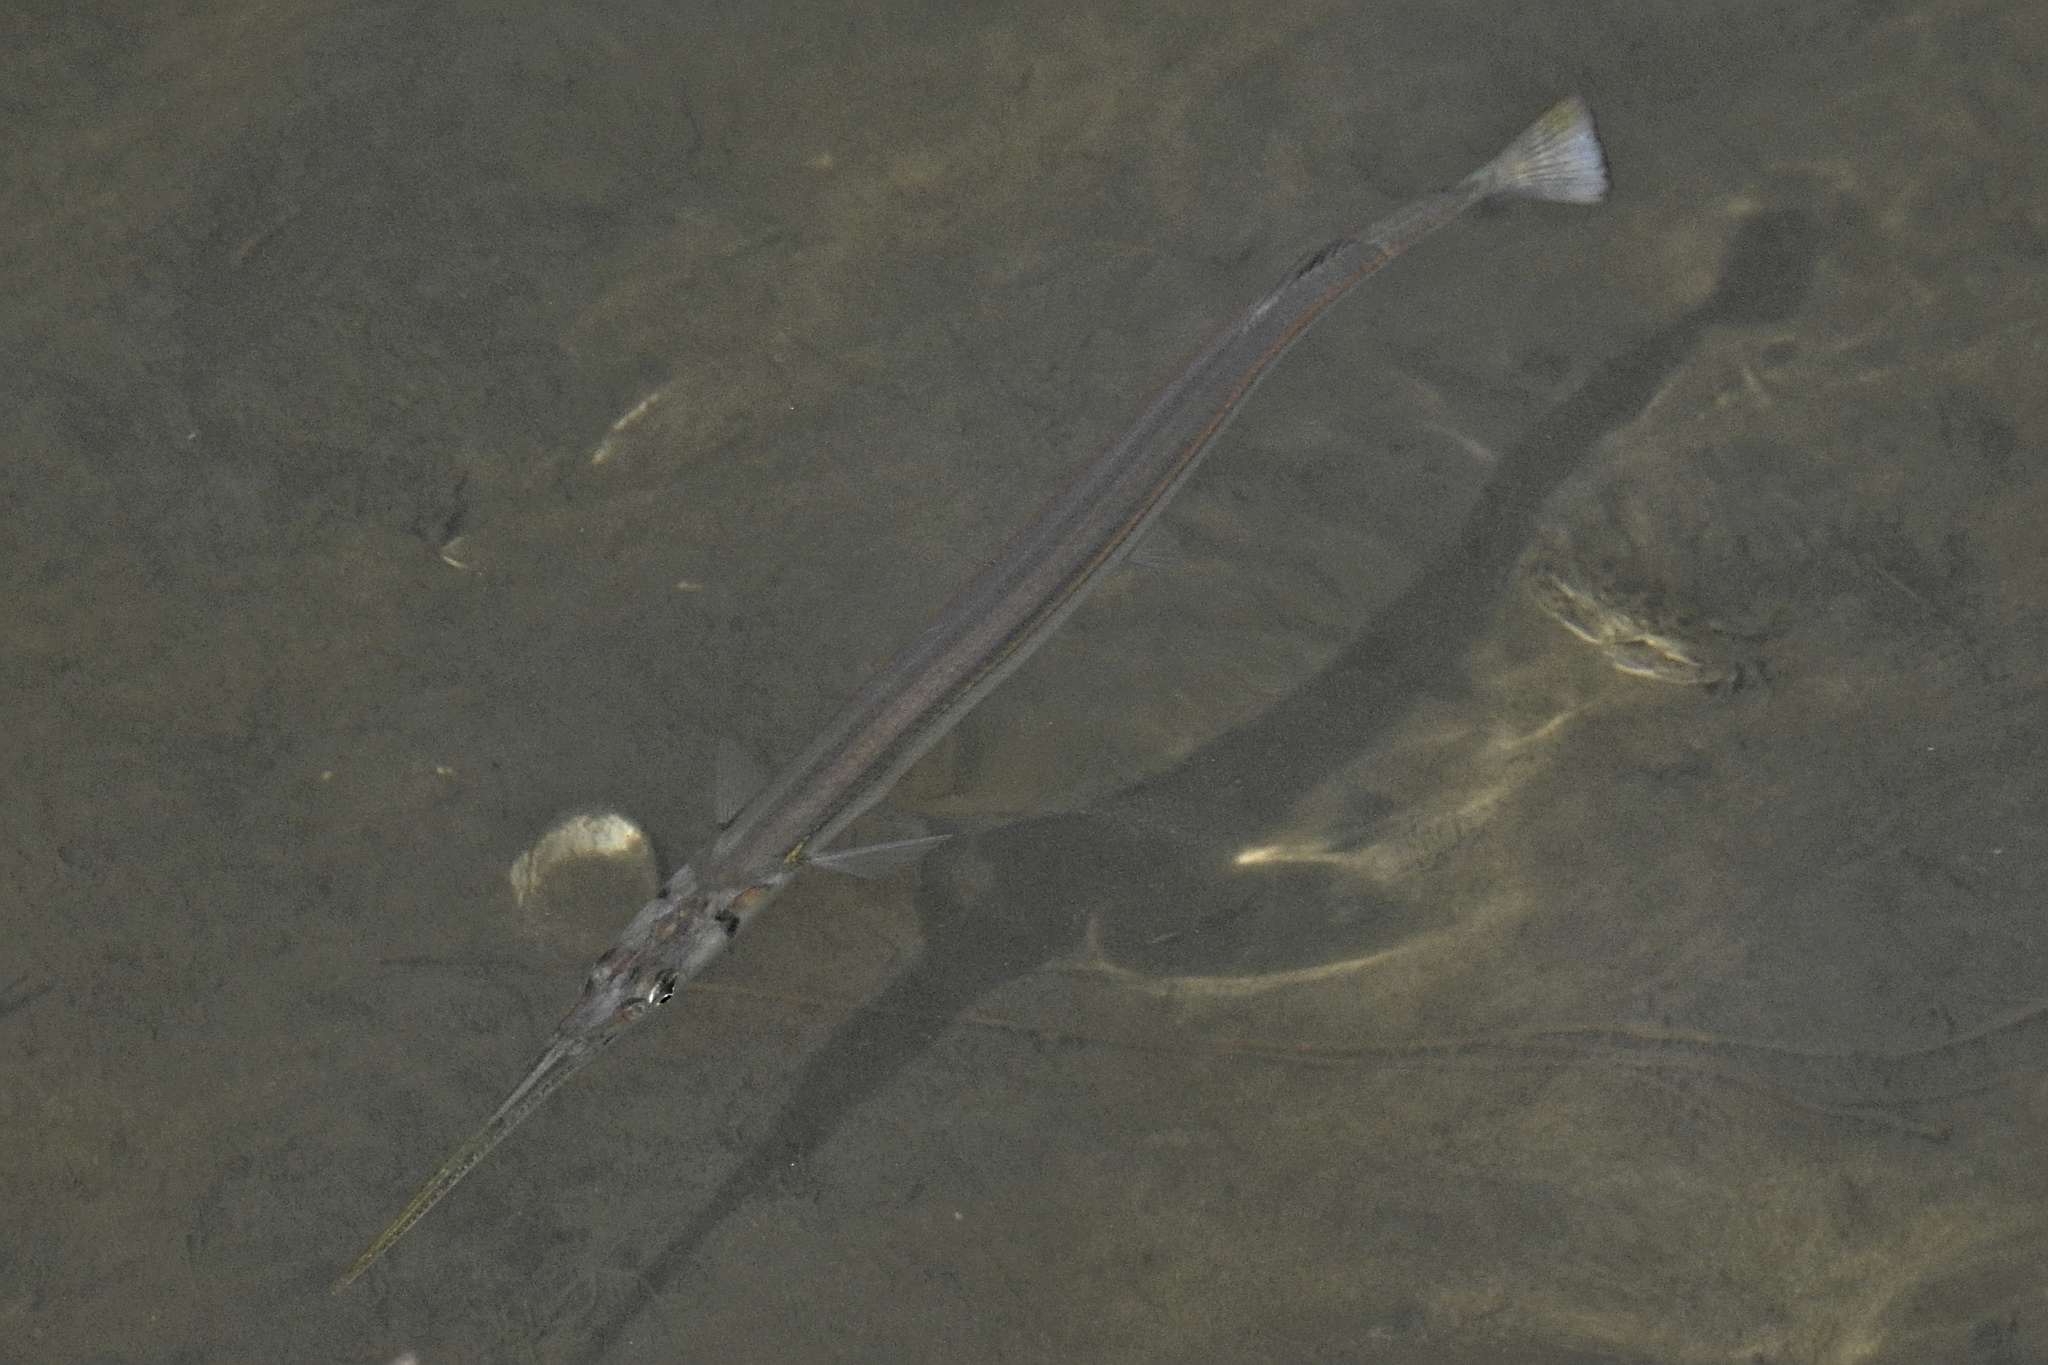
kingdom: Animalia
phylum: Chordata
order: Beloniformes
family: Belonidae
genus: Strongylura
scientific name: Strongylura marina
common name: Atlantic needlefish
